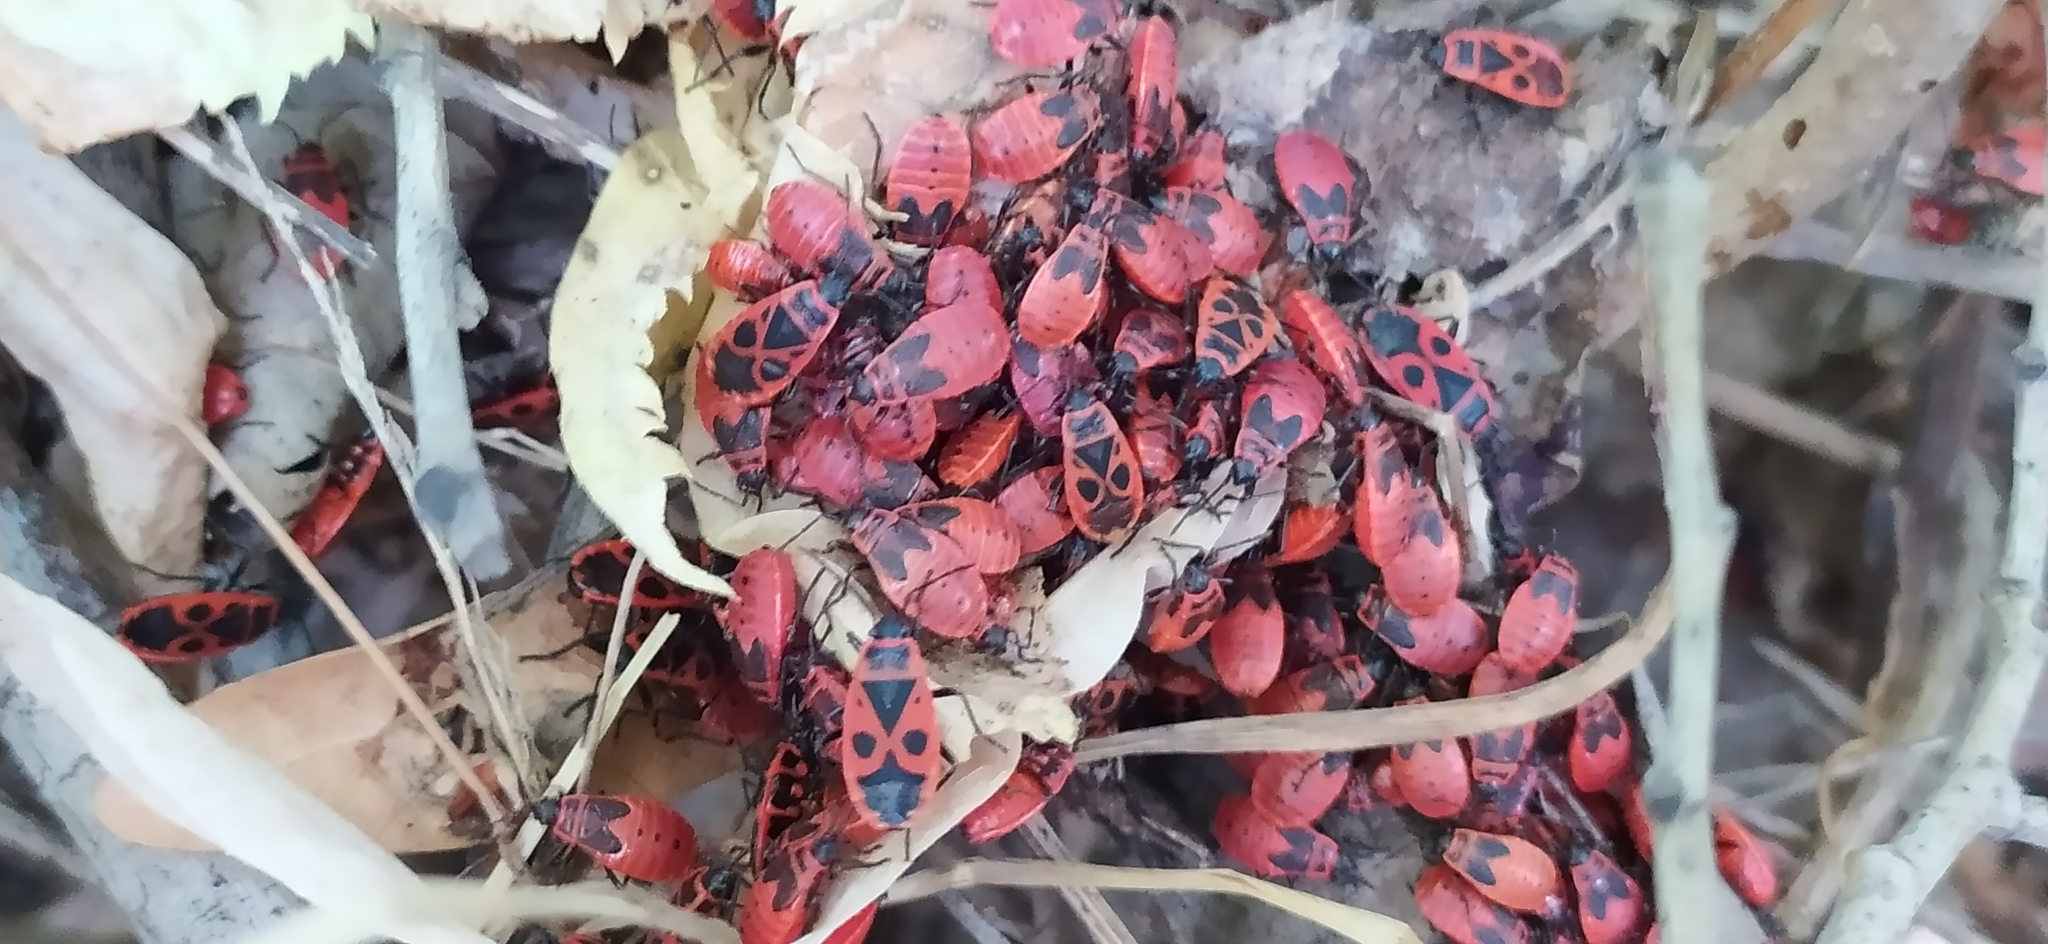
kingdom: Animalia
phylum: Arthropoda
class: Insecta
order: Hemiptera
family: Pyrrhocoridae
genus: Pyrrhocoris
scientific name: Pyrrhocoris apterus
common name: Firebug
